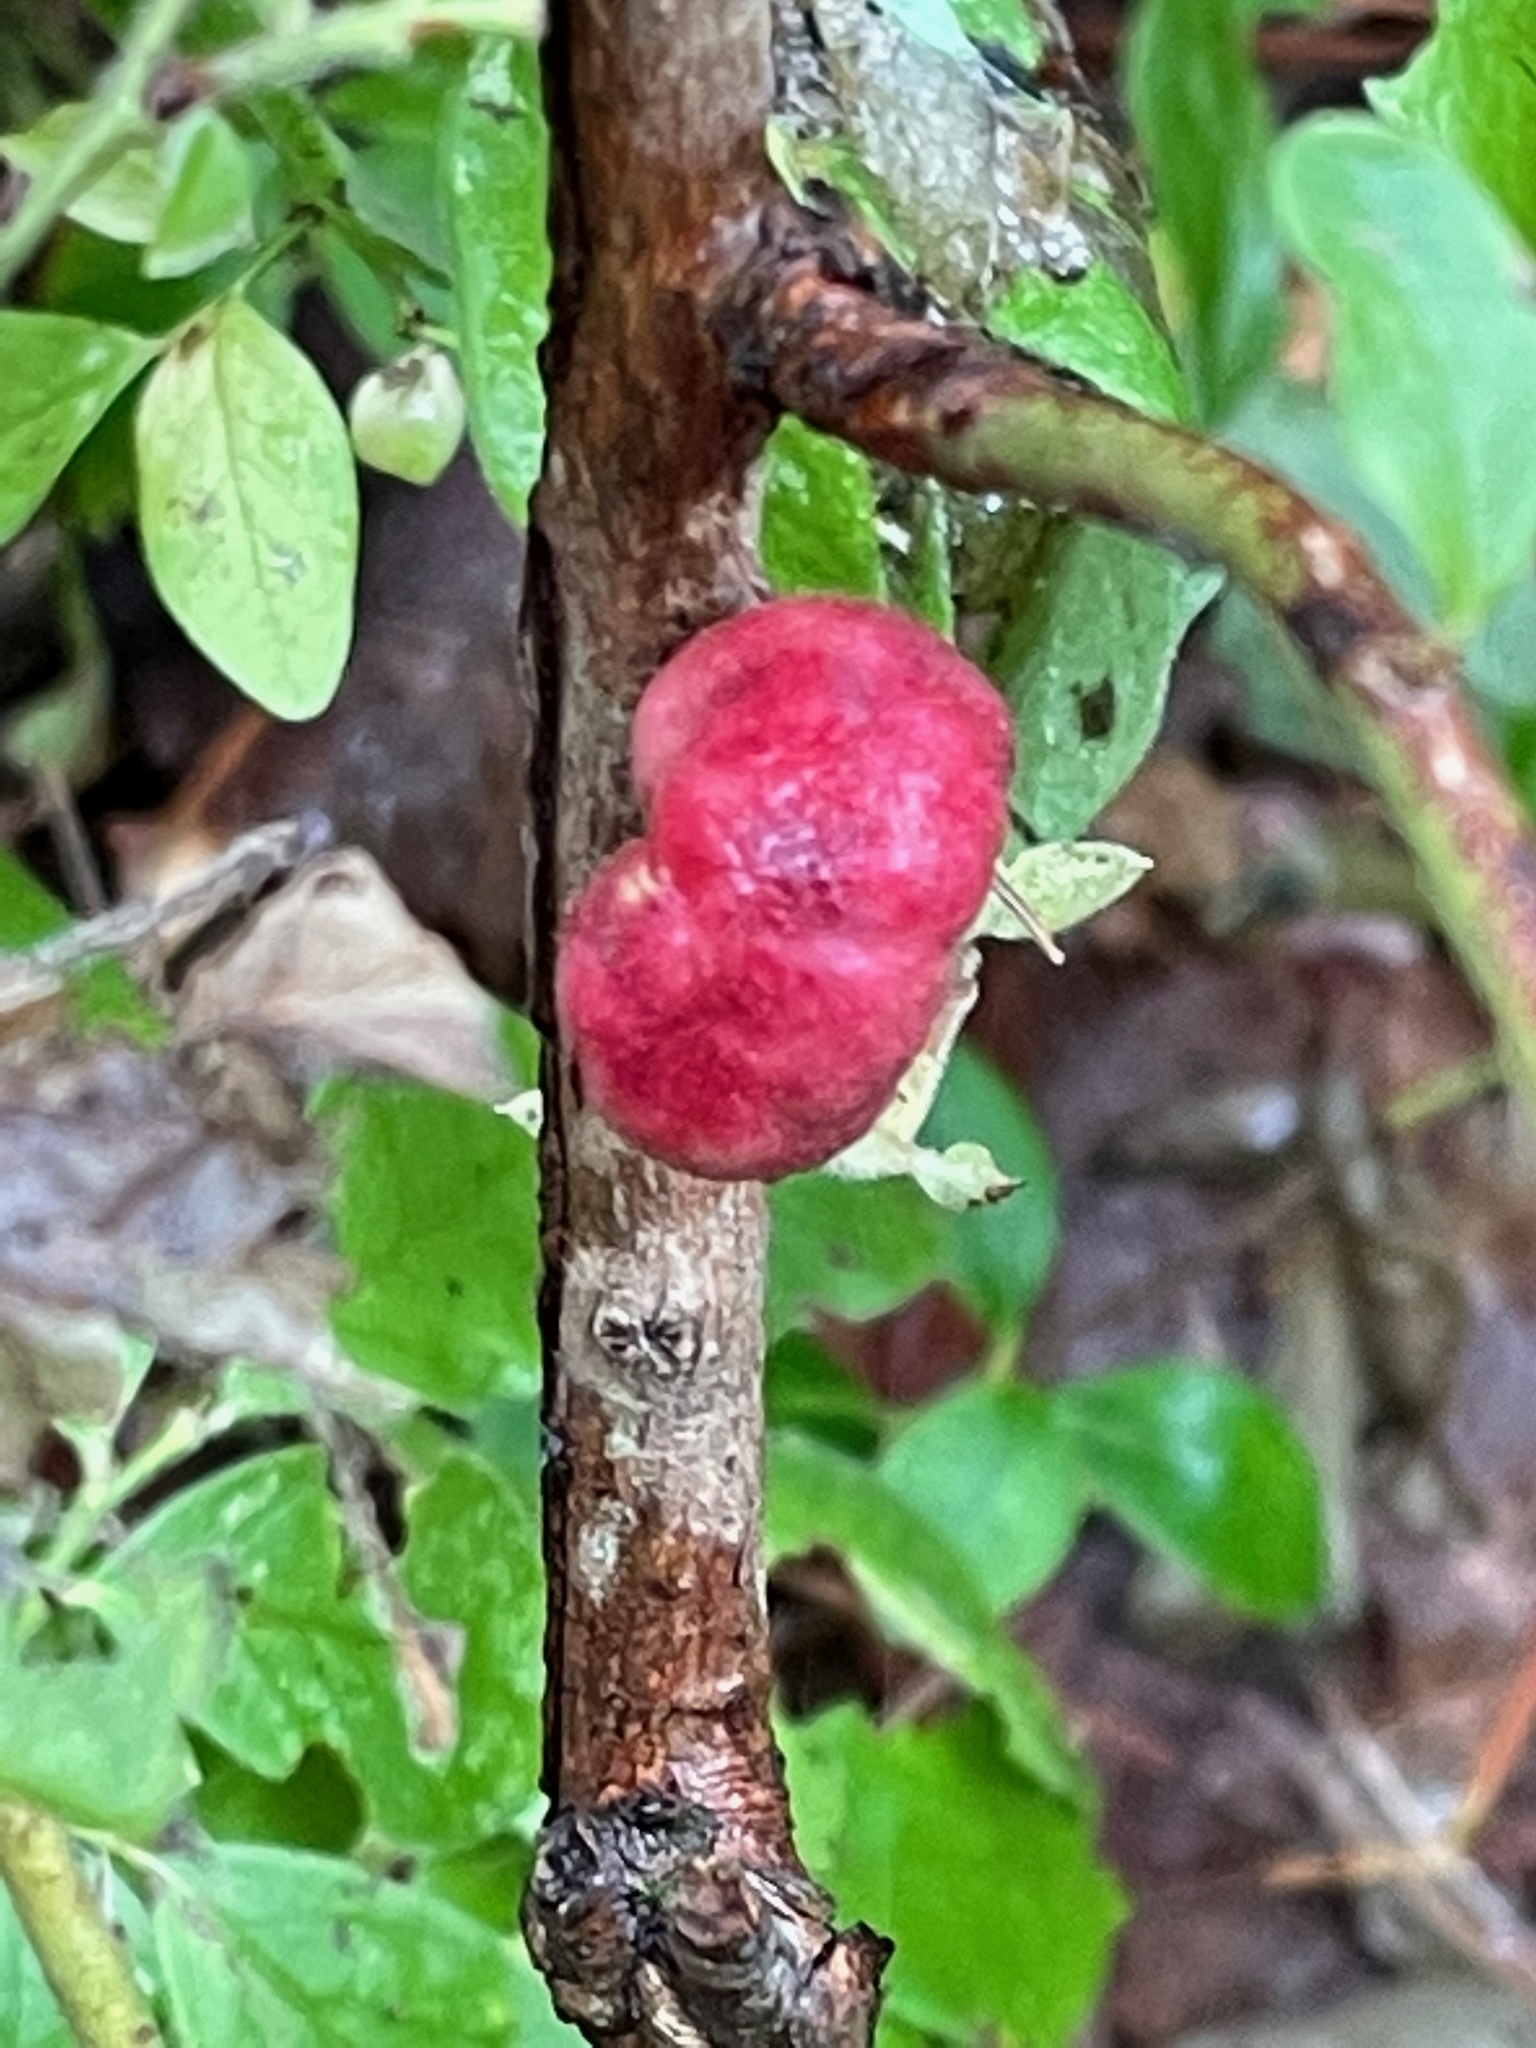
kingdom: Animalia
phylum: Arthropoda
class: Insecta
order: Hymenoptera
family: Pteromalidae
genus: Hemadas
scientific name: Hemadas nubilipennis
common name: Blueberry stem gall wasp
